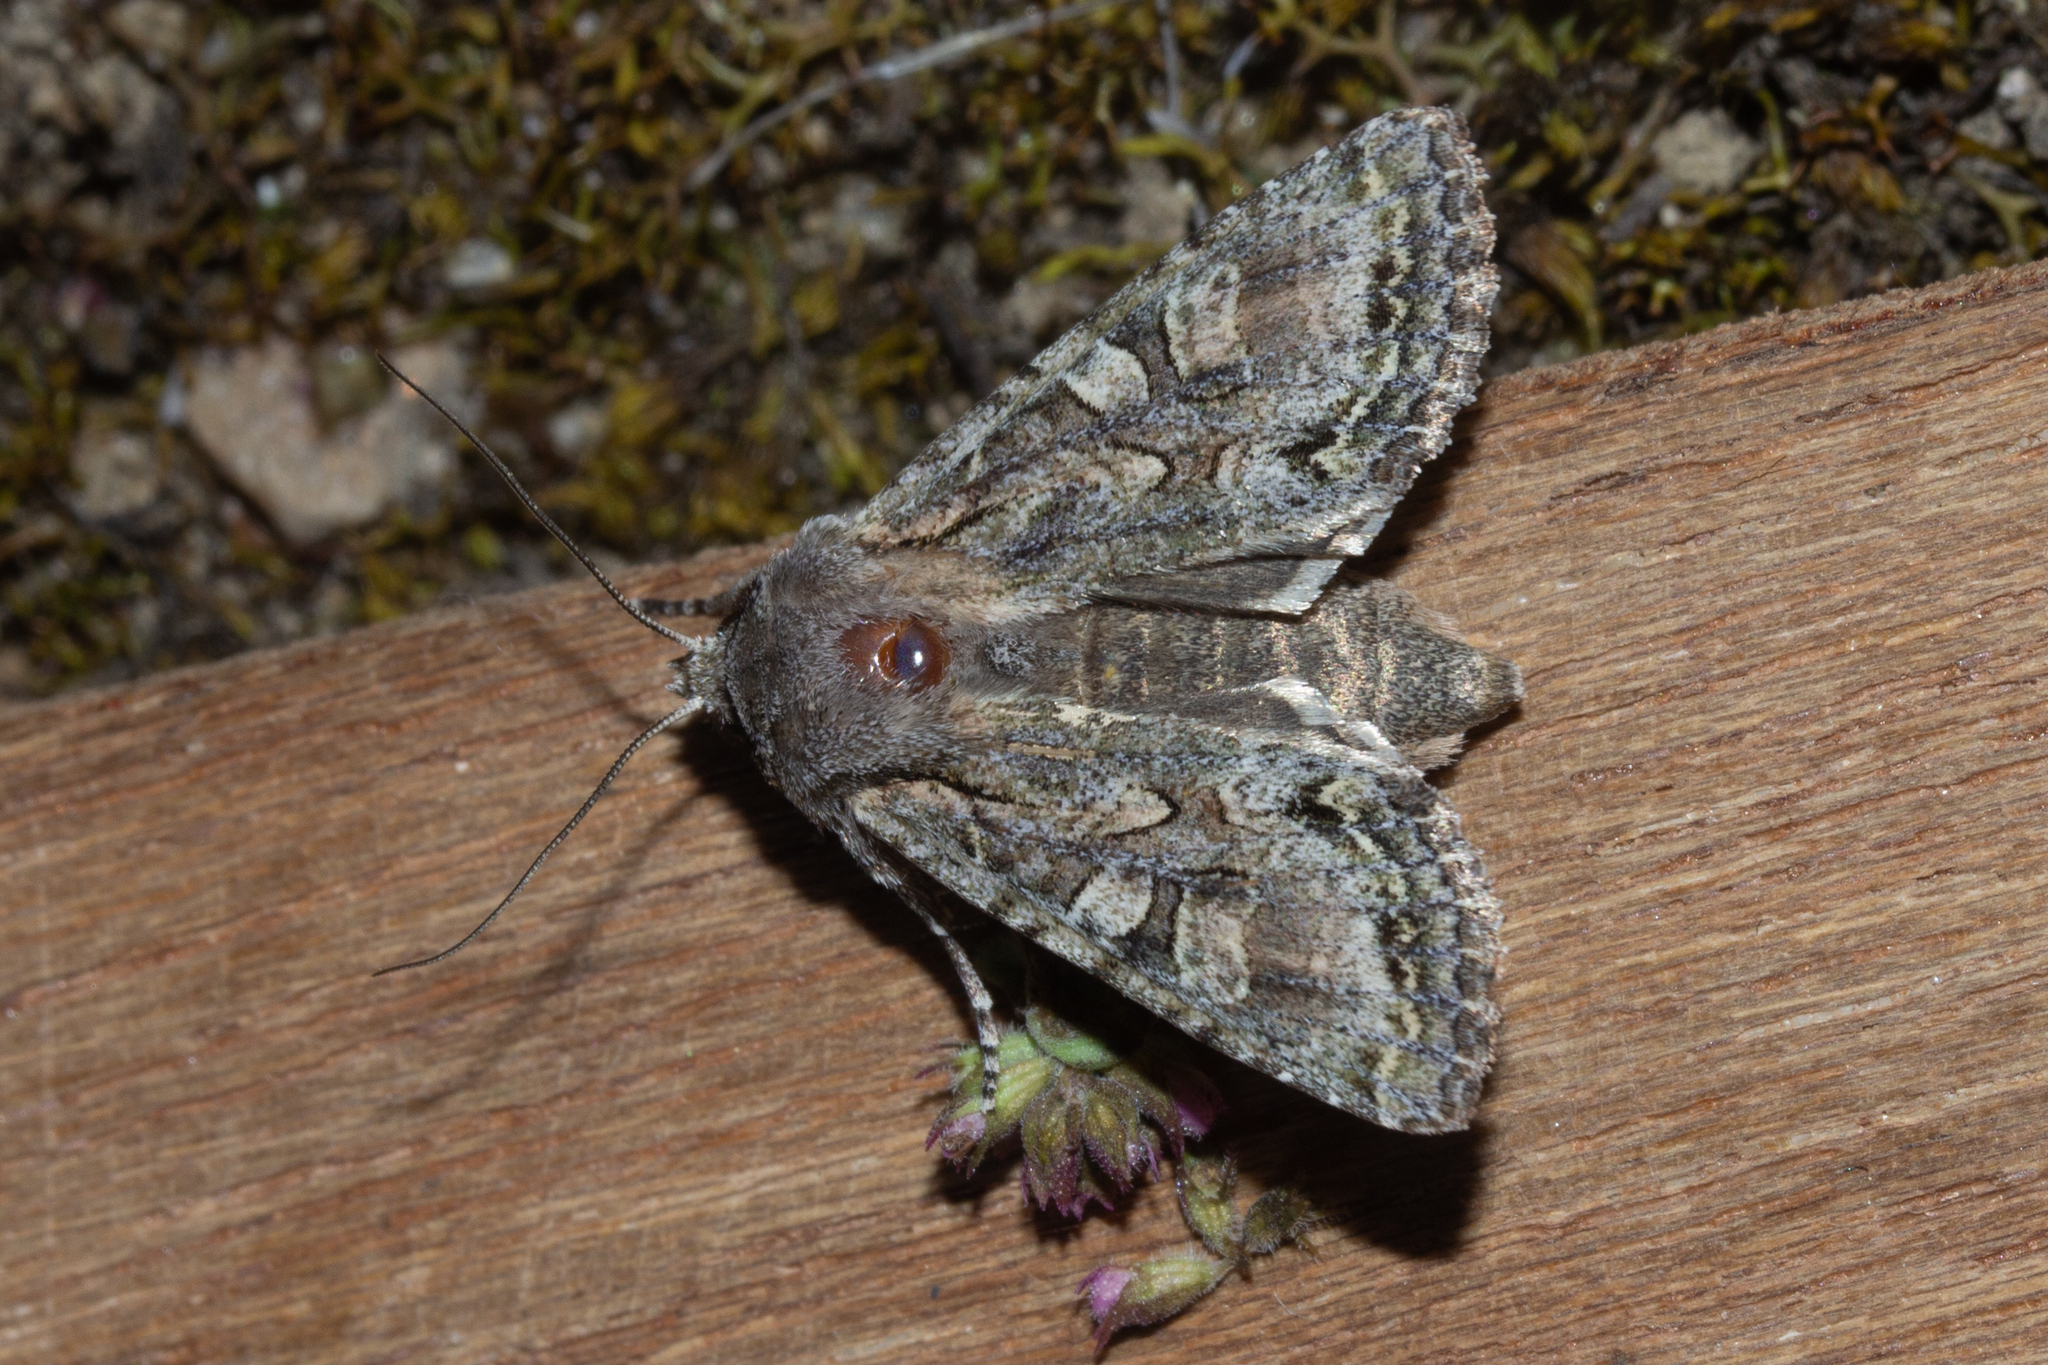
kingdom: Animalia
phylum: Arthropoda
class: Insecta
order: Lepidoptera
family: Noctuidae
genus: Ichneutica
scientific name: Ichneutica mutans
